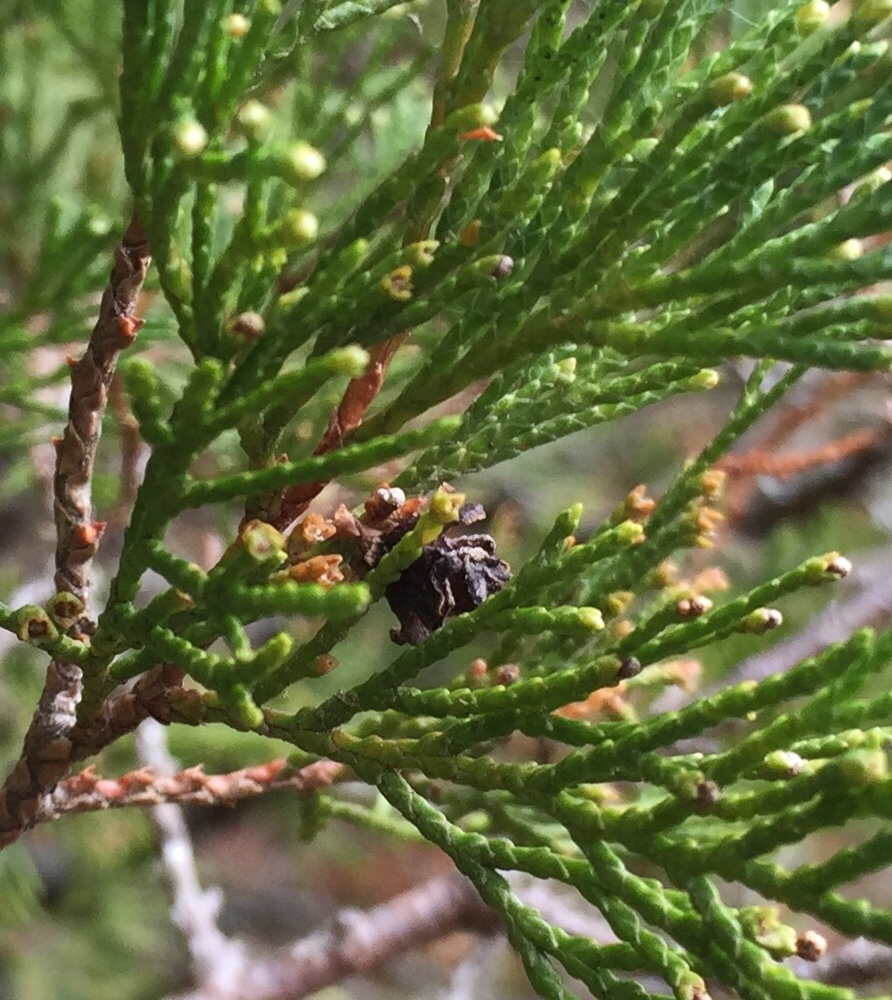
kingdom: Plantae
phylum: Tracheophyta
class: Pinopsida
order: Pinales
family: Cupressaceae
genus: Chamaecyparis
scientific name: Chamaecyparis thyoides
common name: Atlantic white cedar
